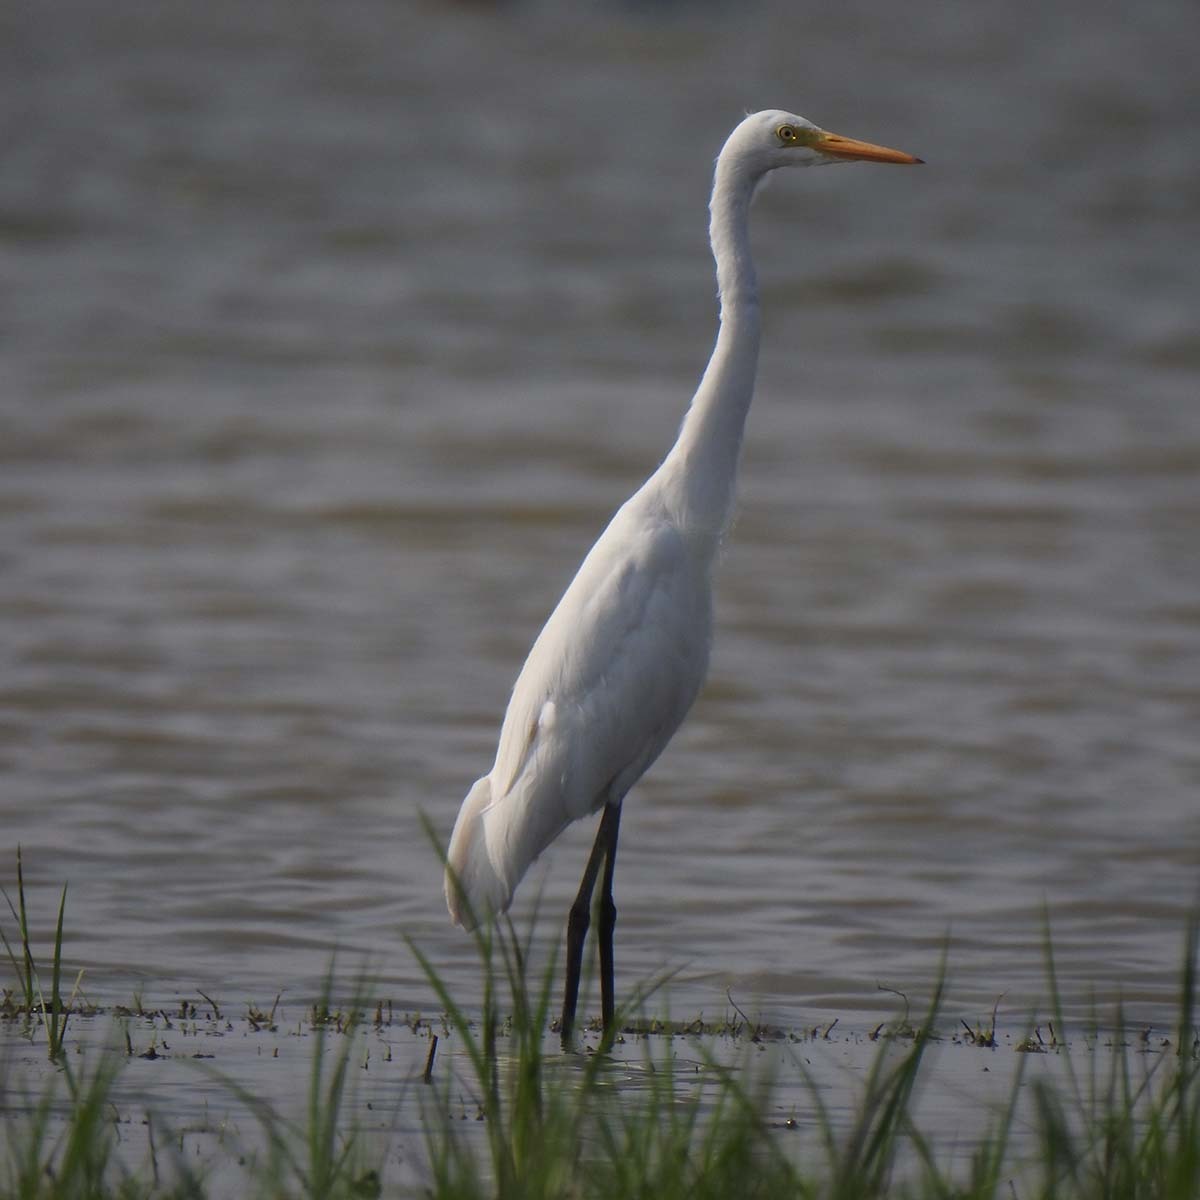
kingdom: Animalia
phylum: Chordata
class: Aves
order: Pelecaniformes
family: Ardeidae
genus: Egretta
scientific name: Egretta intermedia
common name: Intermediate egret
